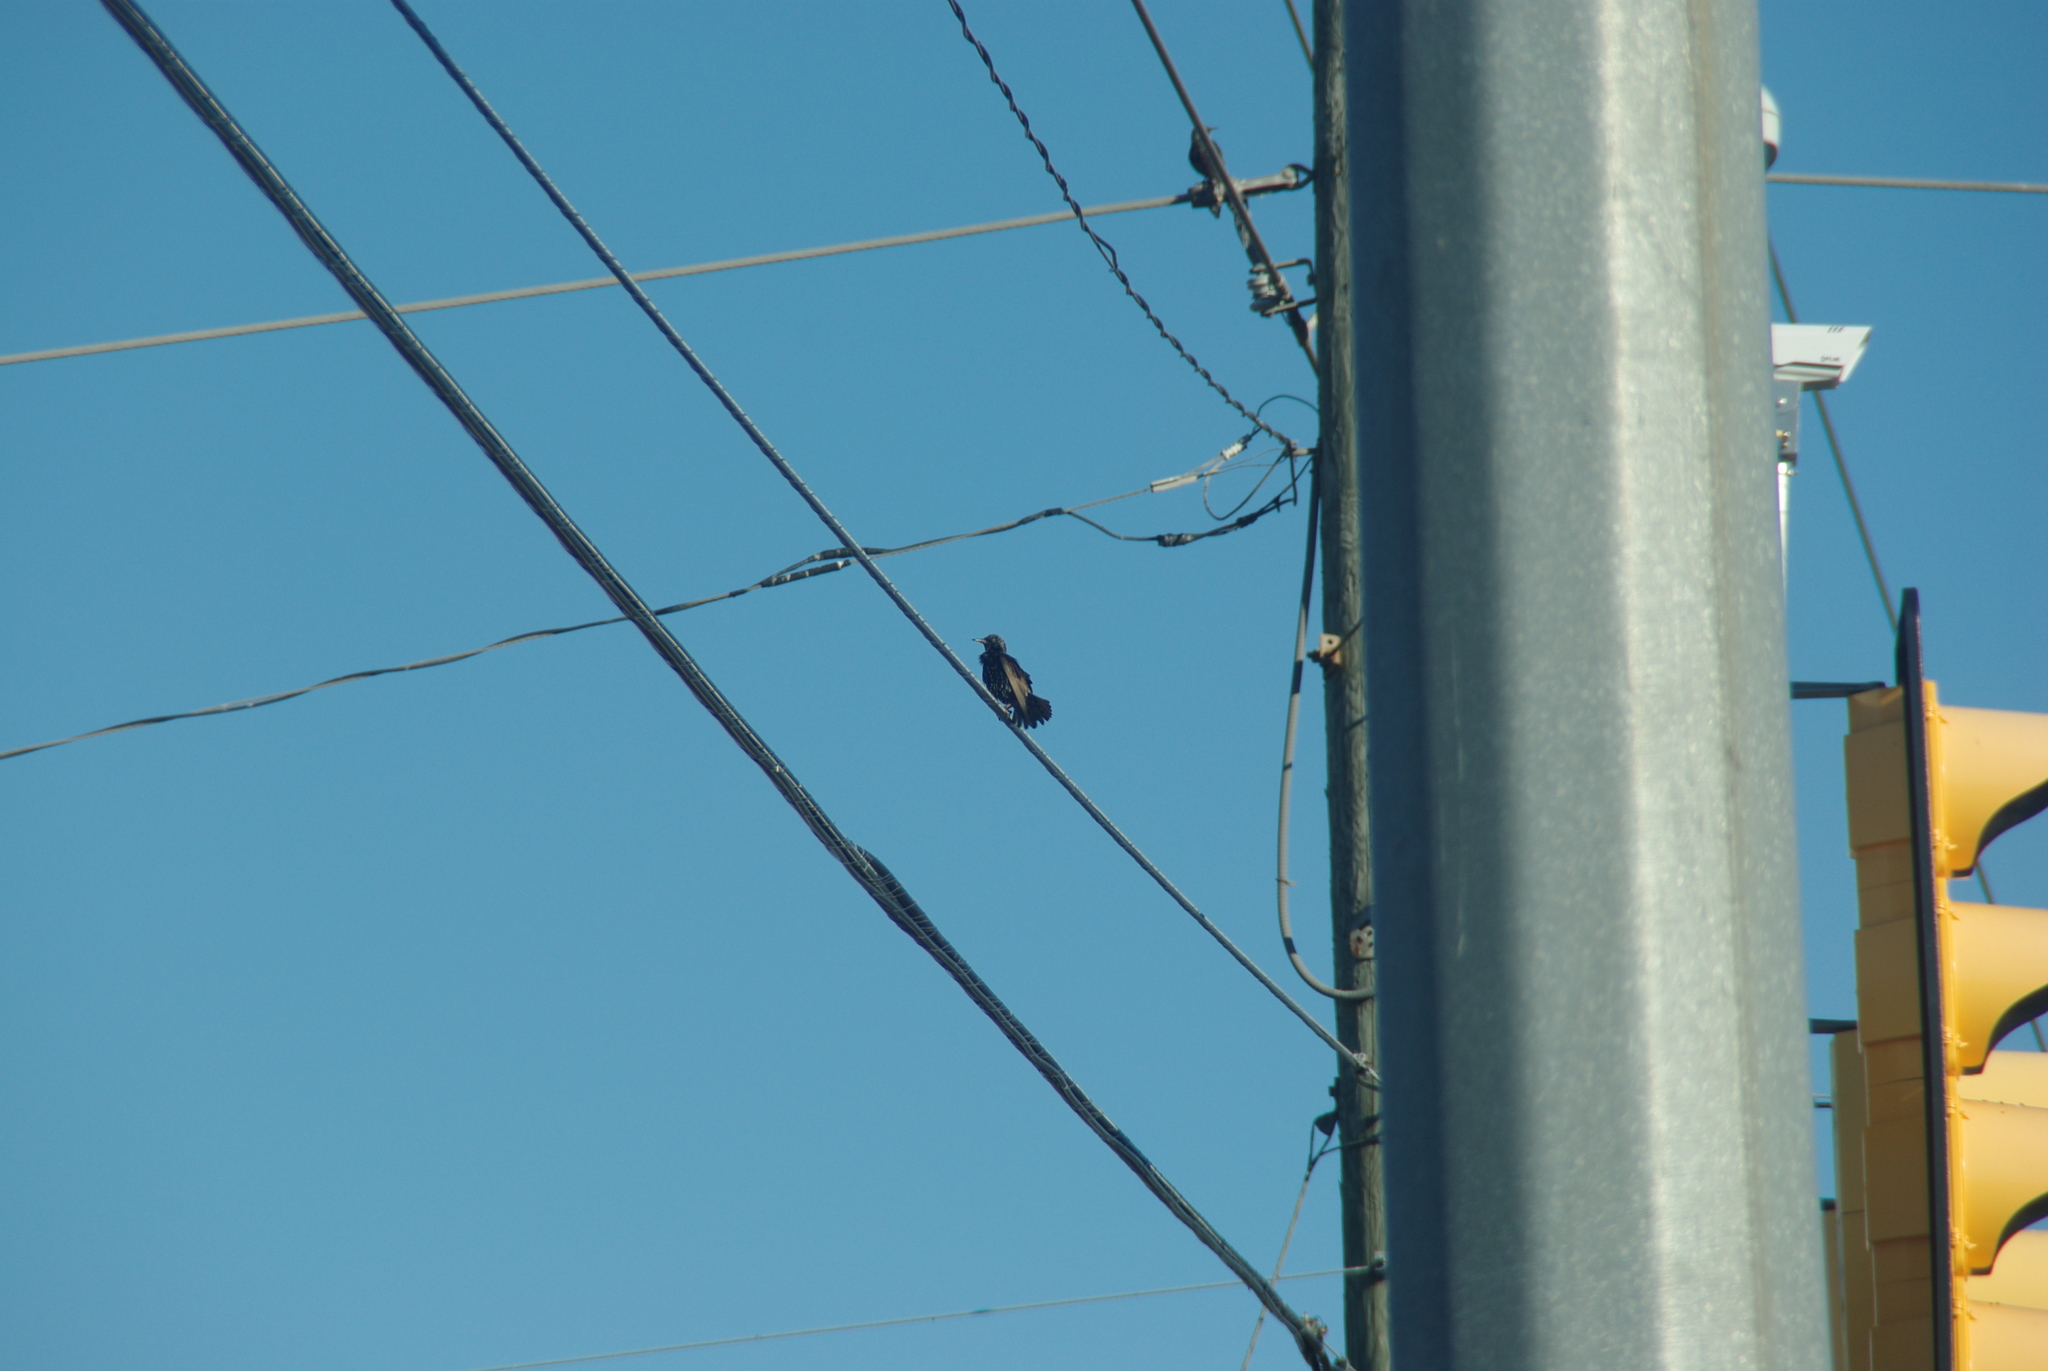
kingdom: Animalia
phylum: Chordata
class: Aves
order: Passeriformes
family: Sturnidae
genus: Sturnus
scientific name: Sturnus vulgaris
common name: Common starling
